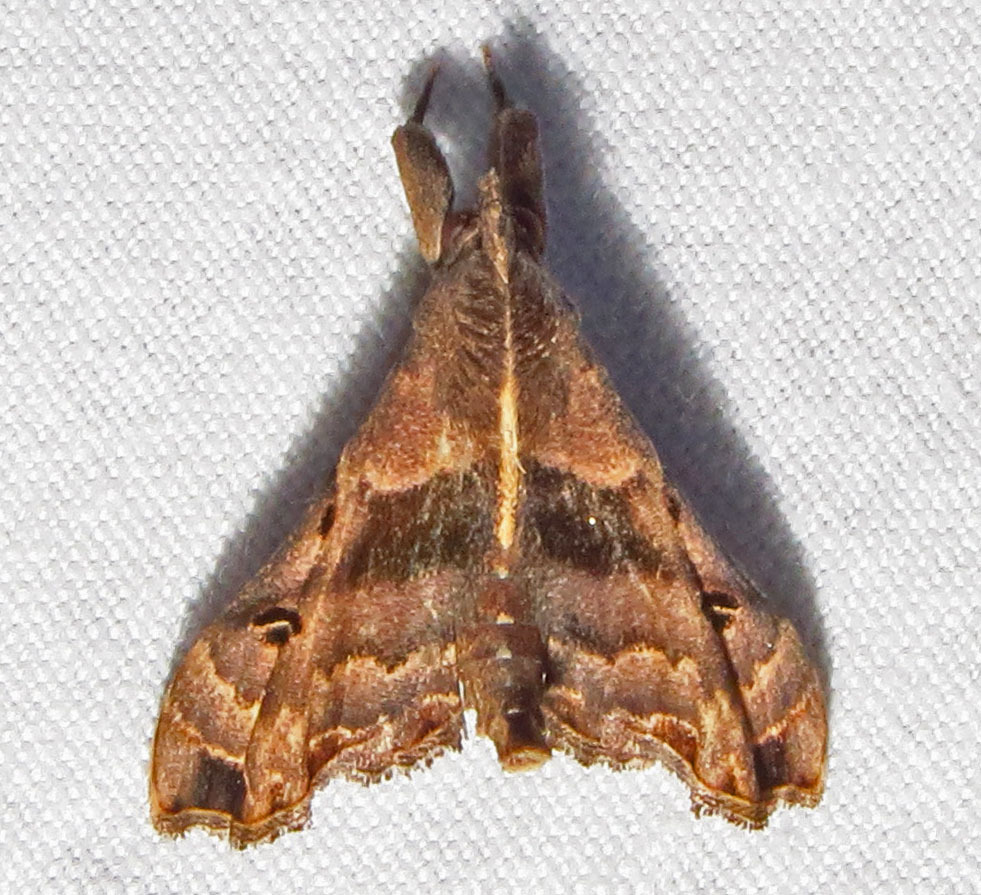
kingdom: Animalia
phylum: Arthropoda
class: Insecta
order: Lepidoptera
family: Erebidae
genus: Palthis
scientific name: Palthis asopialis
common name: Faint-spotted palthis moth
